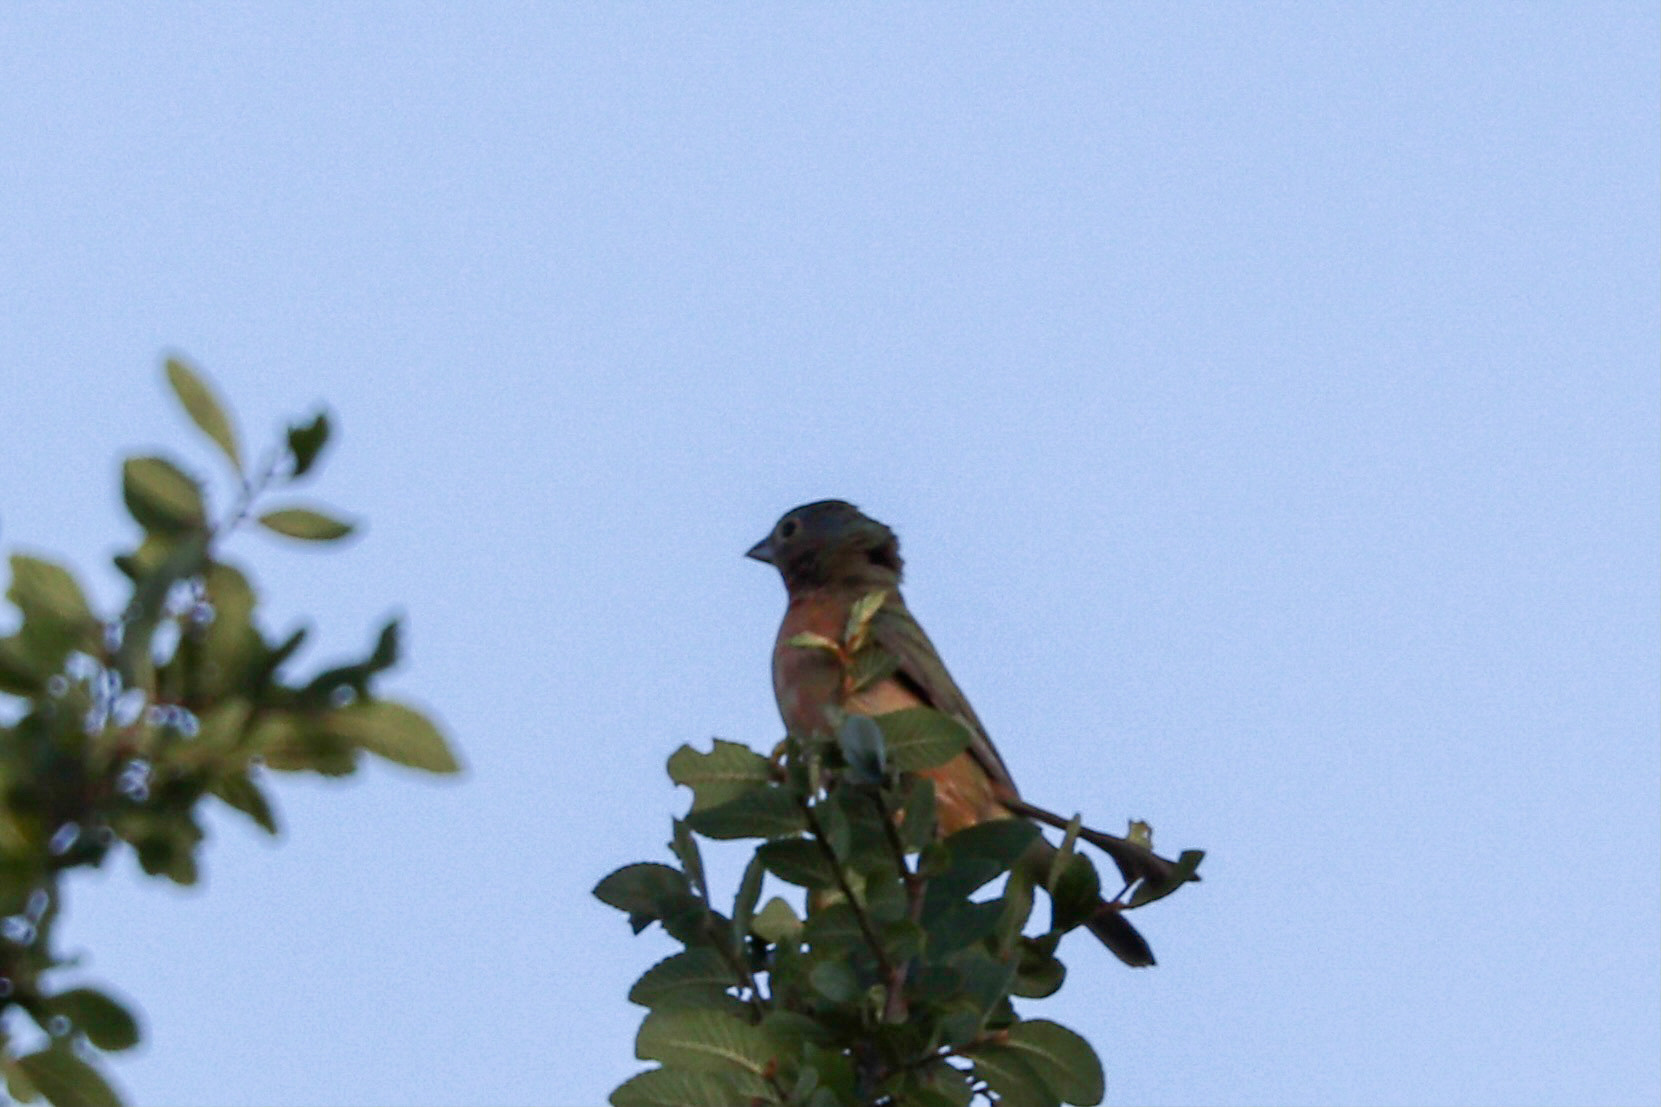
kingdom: Animalia
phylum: Chordata
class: Aves
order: Passeriformes
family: Cardinalidae
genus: Passerina
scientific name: Passerina ciris
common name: Painted bunting
